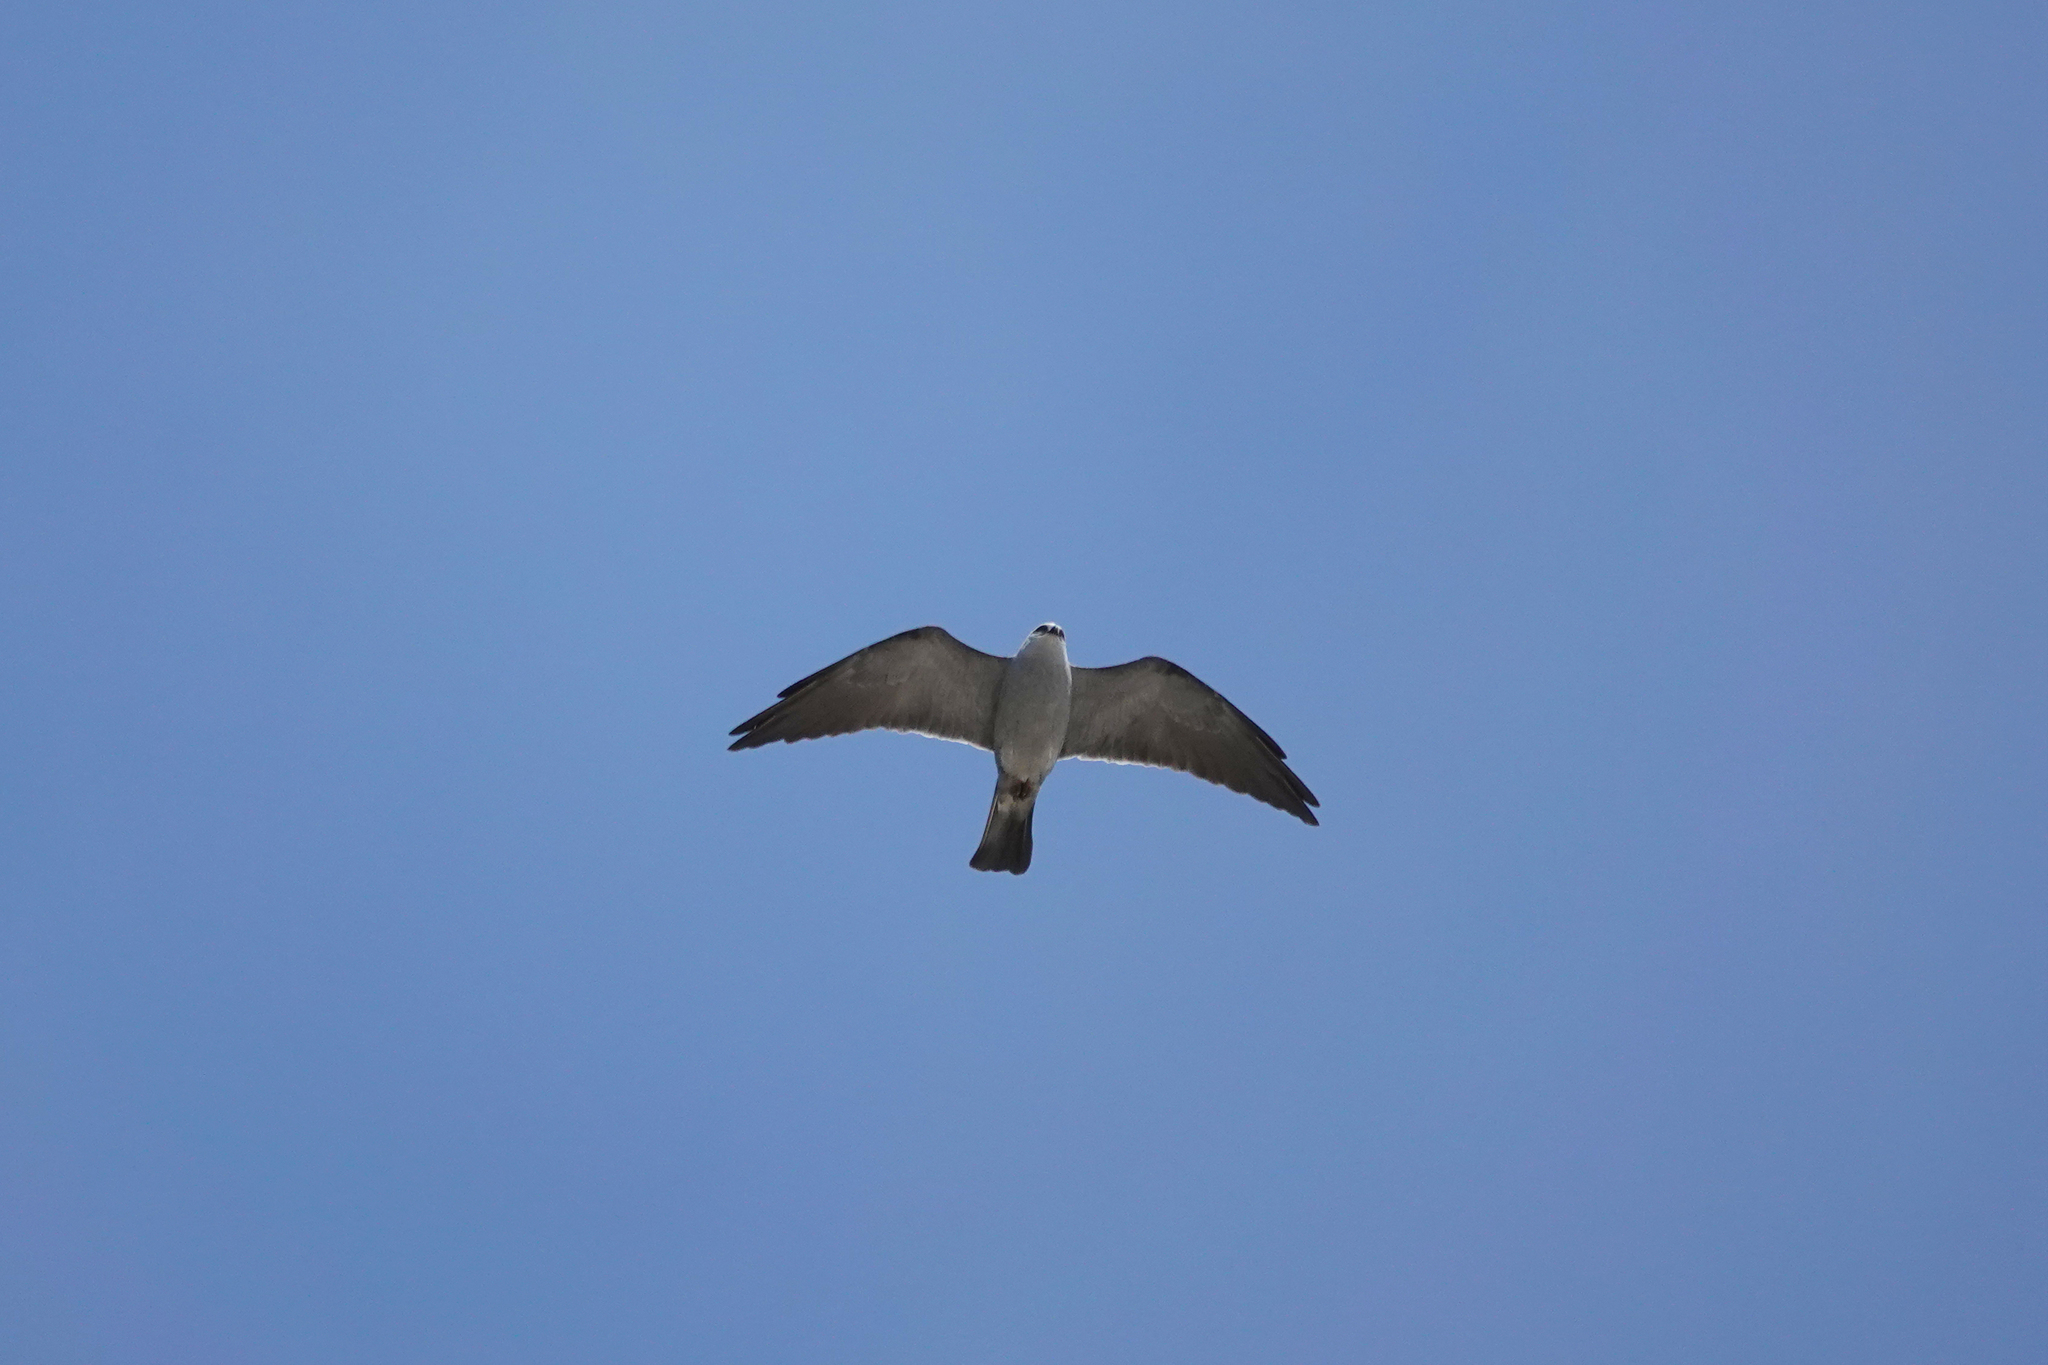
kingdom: Animalia
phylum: Chordata
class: Aves
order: Accipitriformes
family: Accipitridae
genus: Ictinia
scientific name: Ictinia mississippiensis
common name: Mississippi kite
